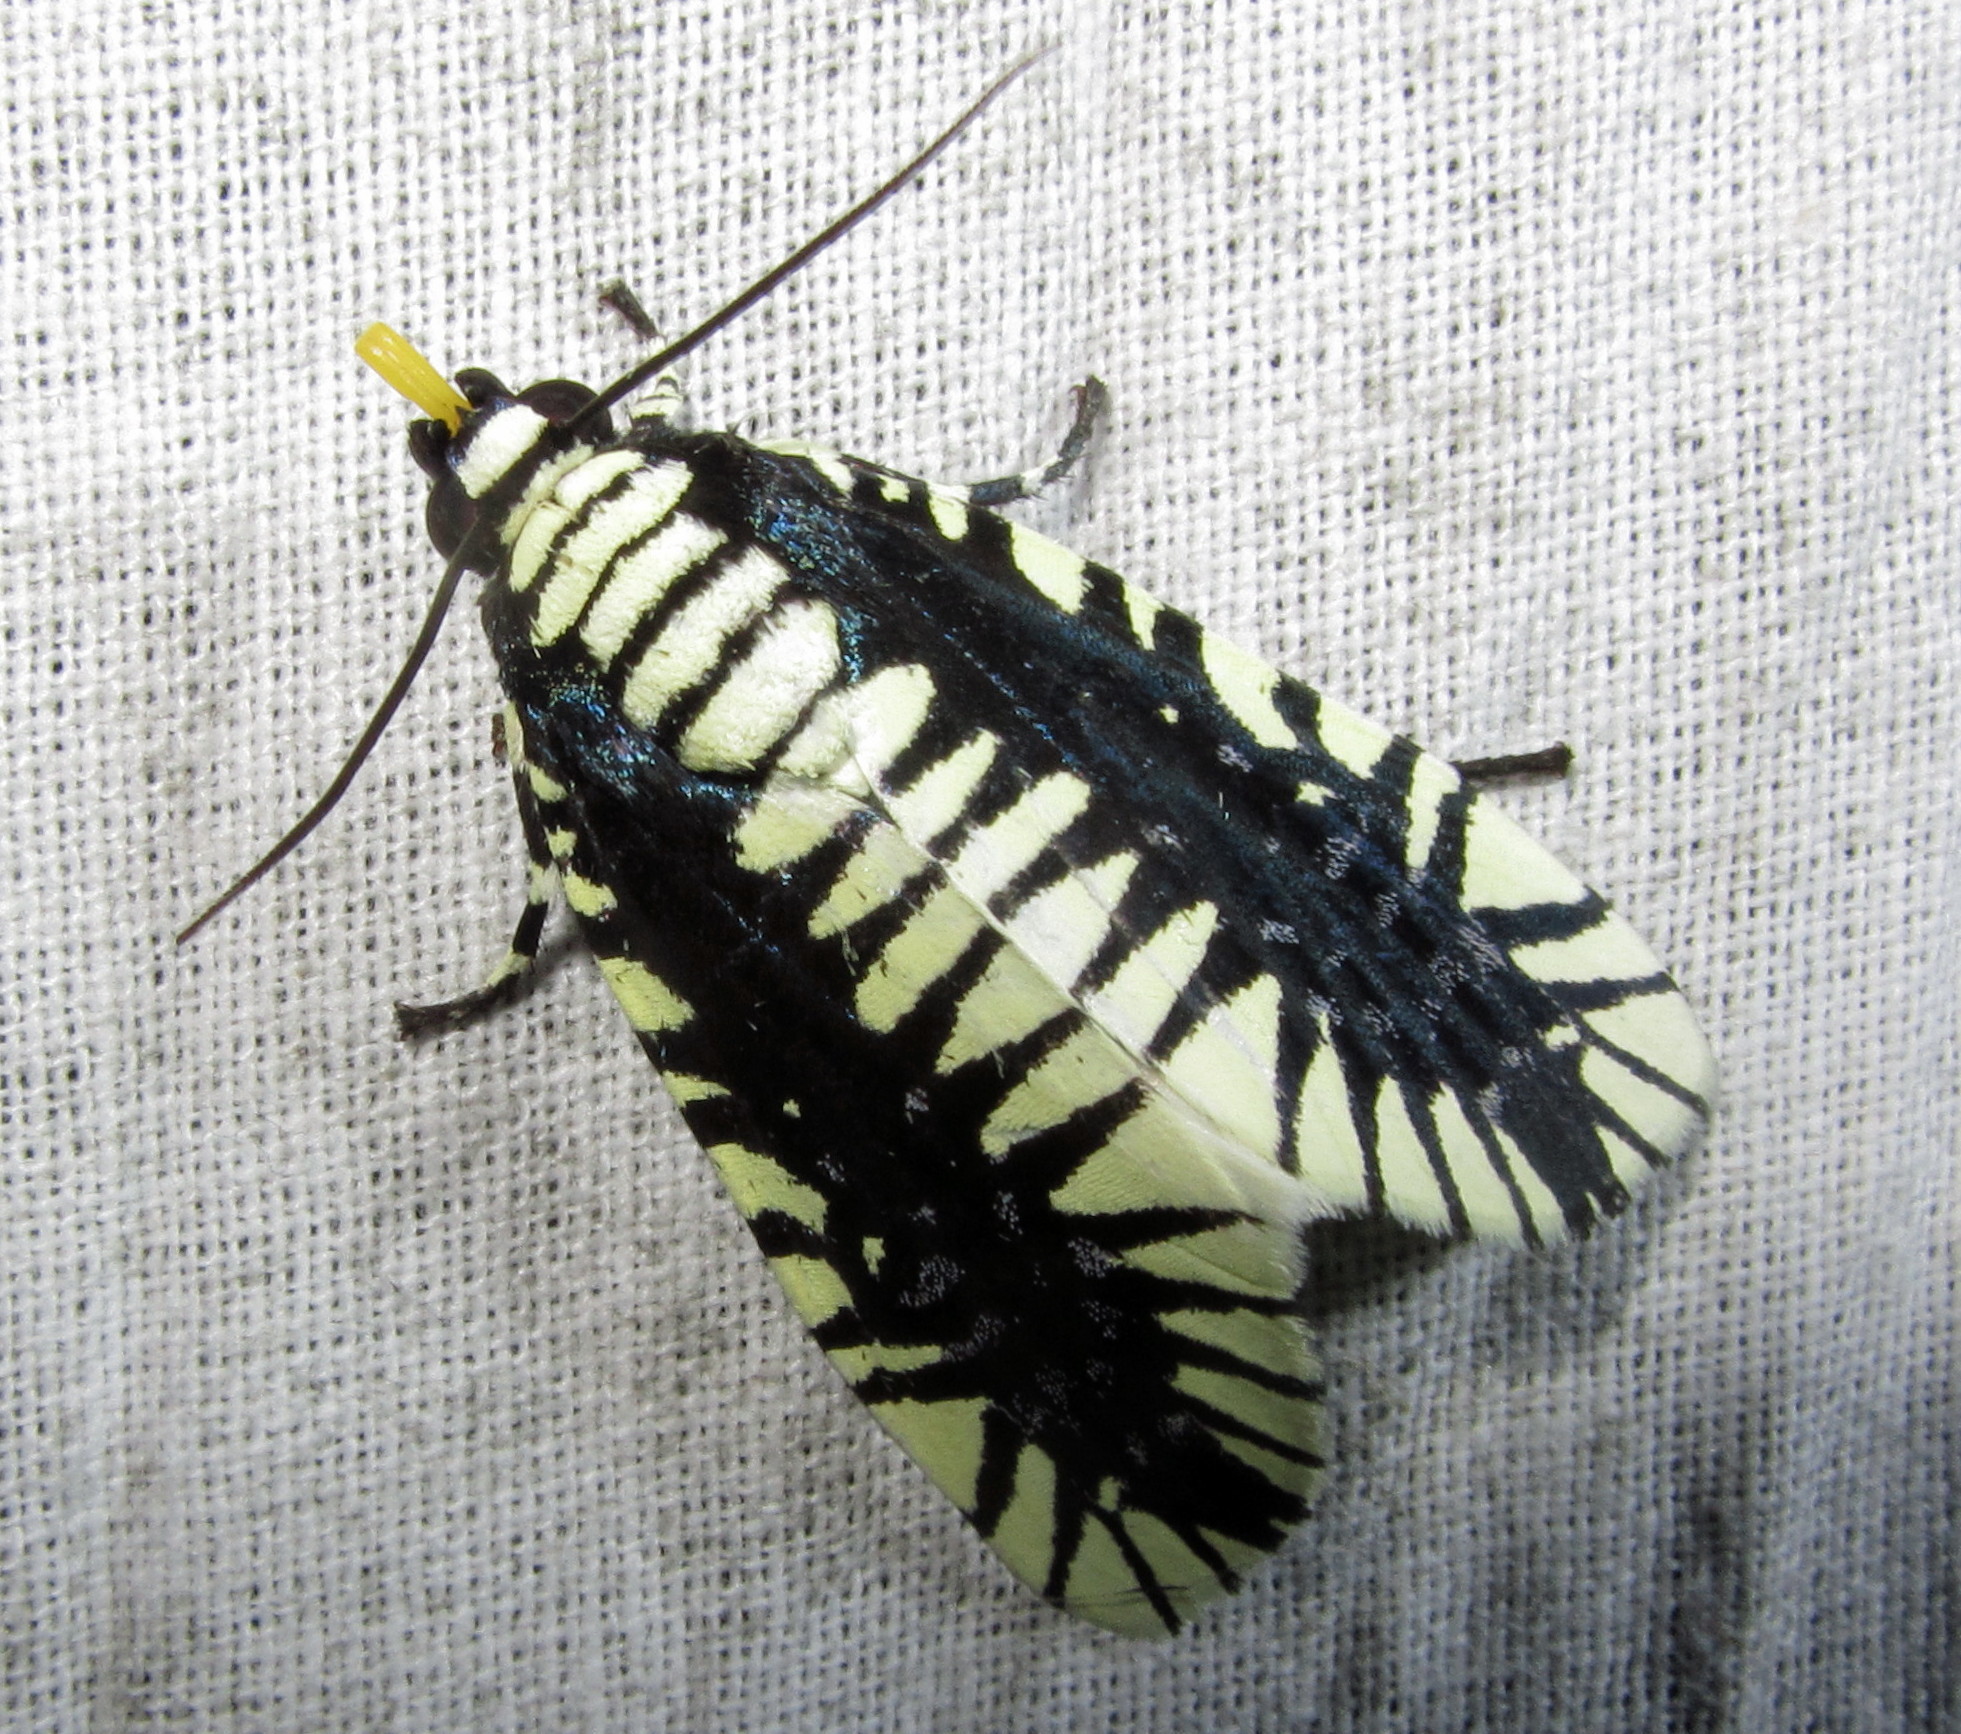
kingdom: Animalia
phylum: Arthropoda
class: Insecta
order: Lepidoptera
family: Noctuidae
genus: Apsarasa
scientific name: Apsarasa radians
